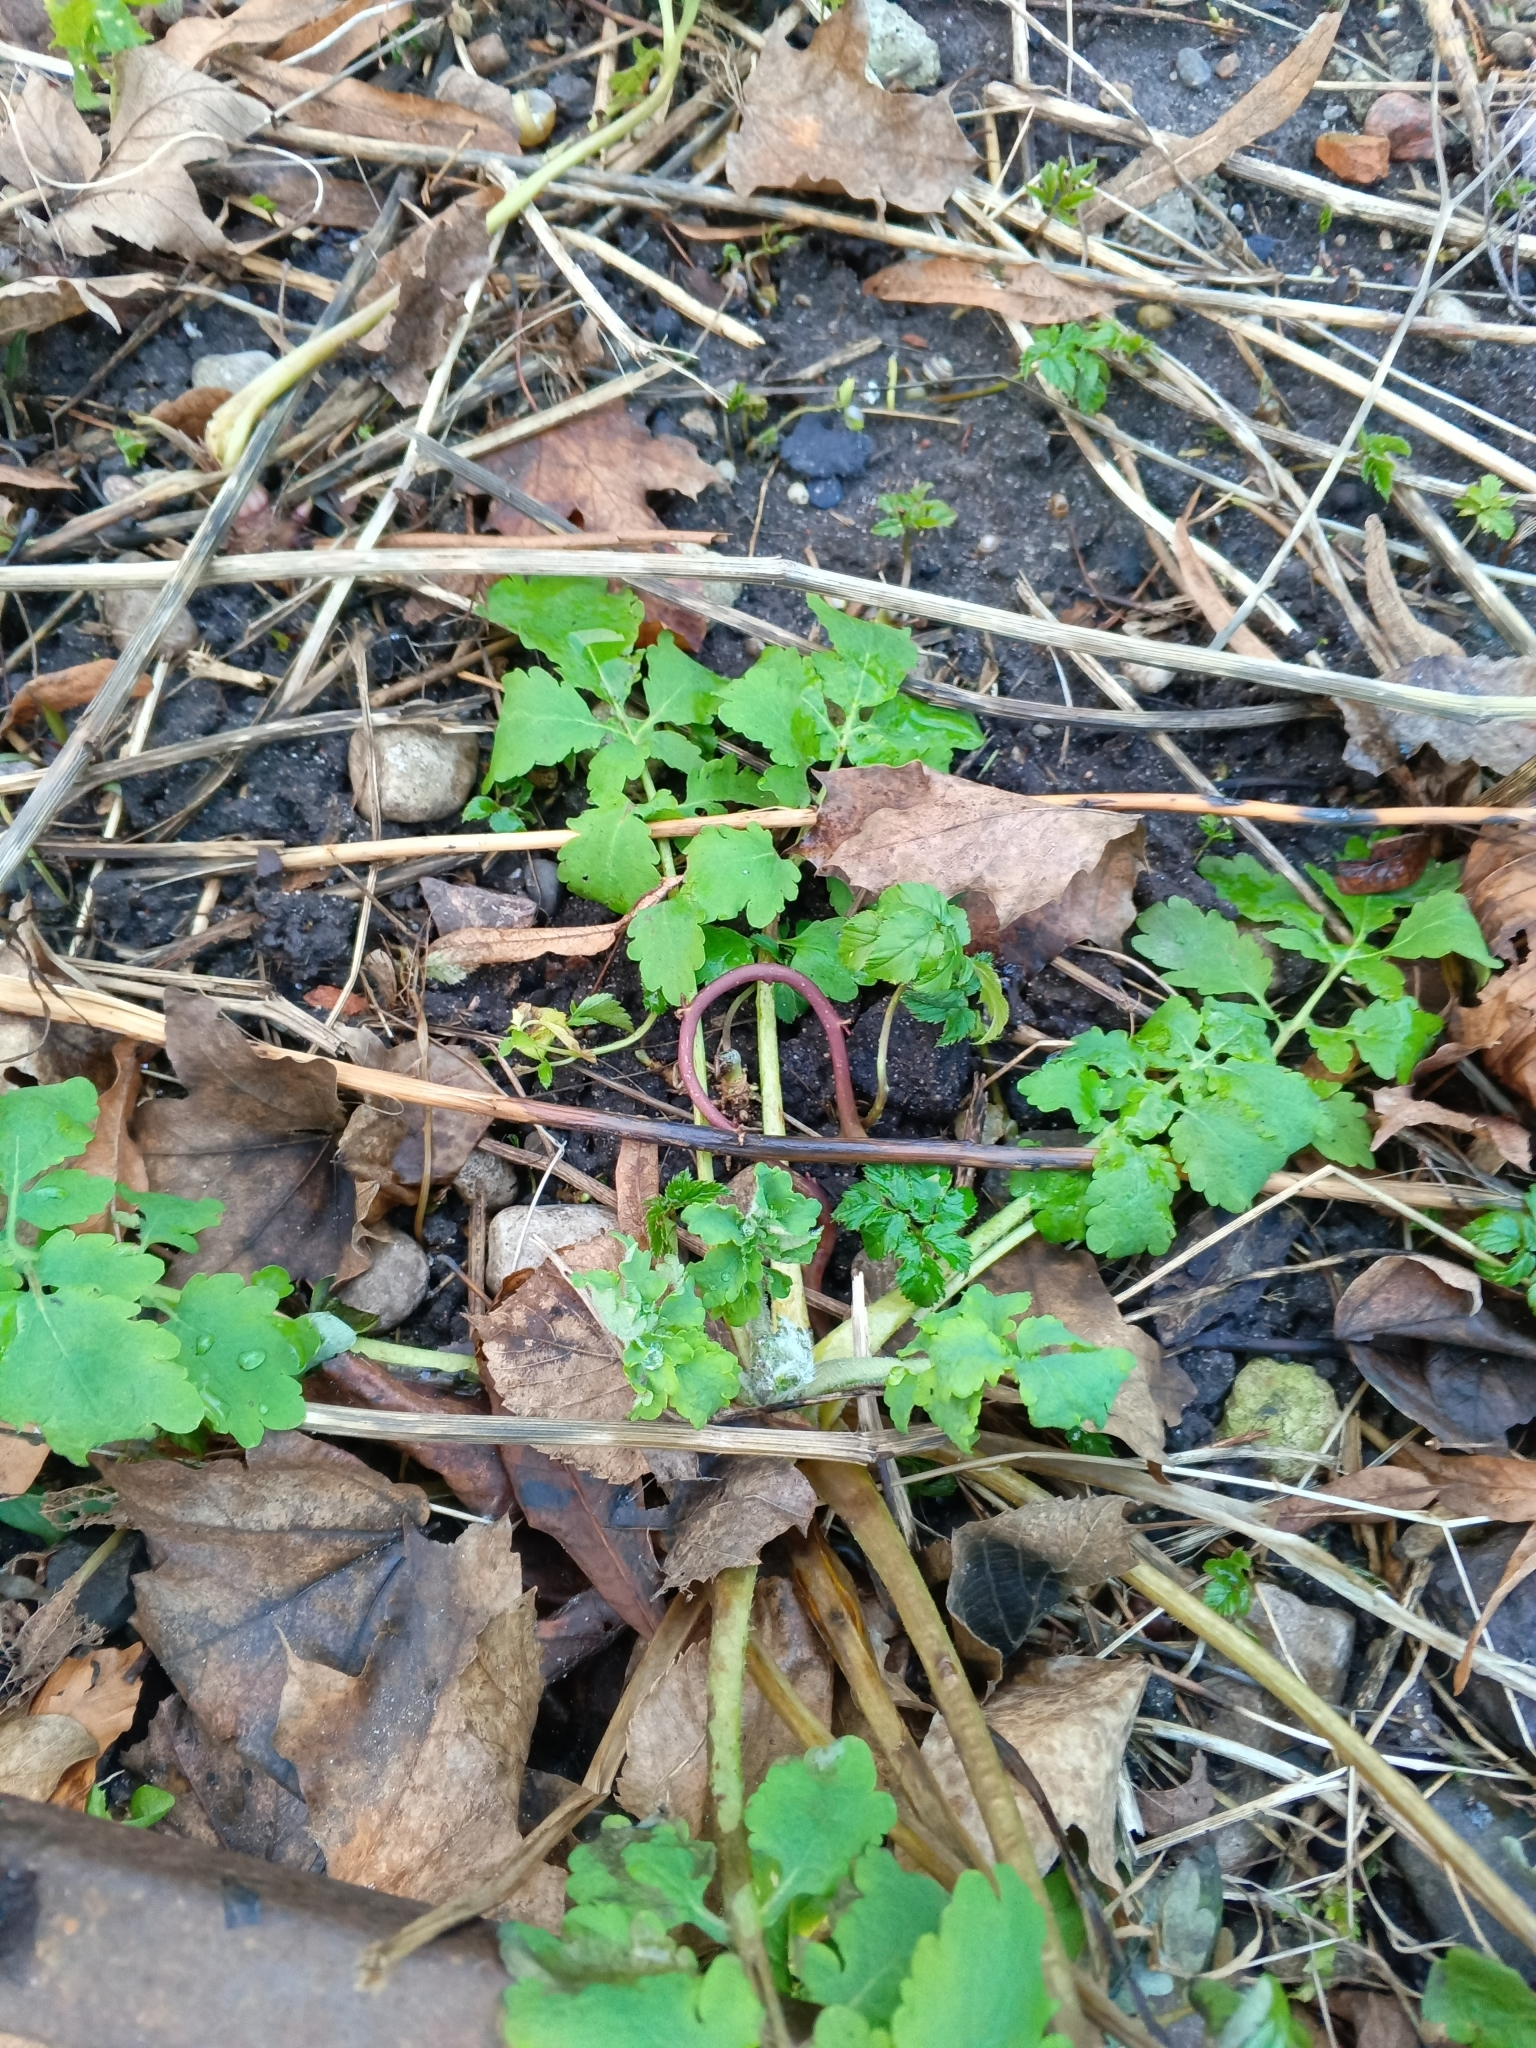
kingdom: Plantae
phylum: Tracheophyta
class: Magnoliopsida
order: Ranunculales
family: Papaveraceae
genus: Chelidonium
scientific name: Chelidonium majus
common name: Greater celandine
